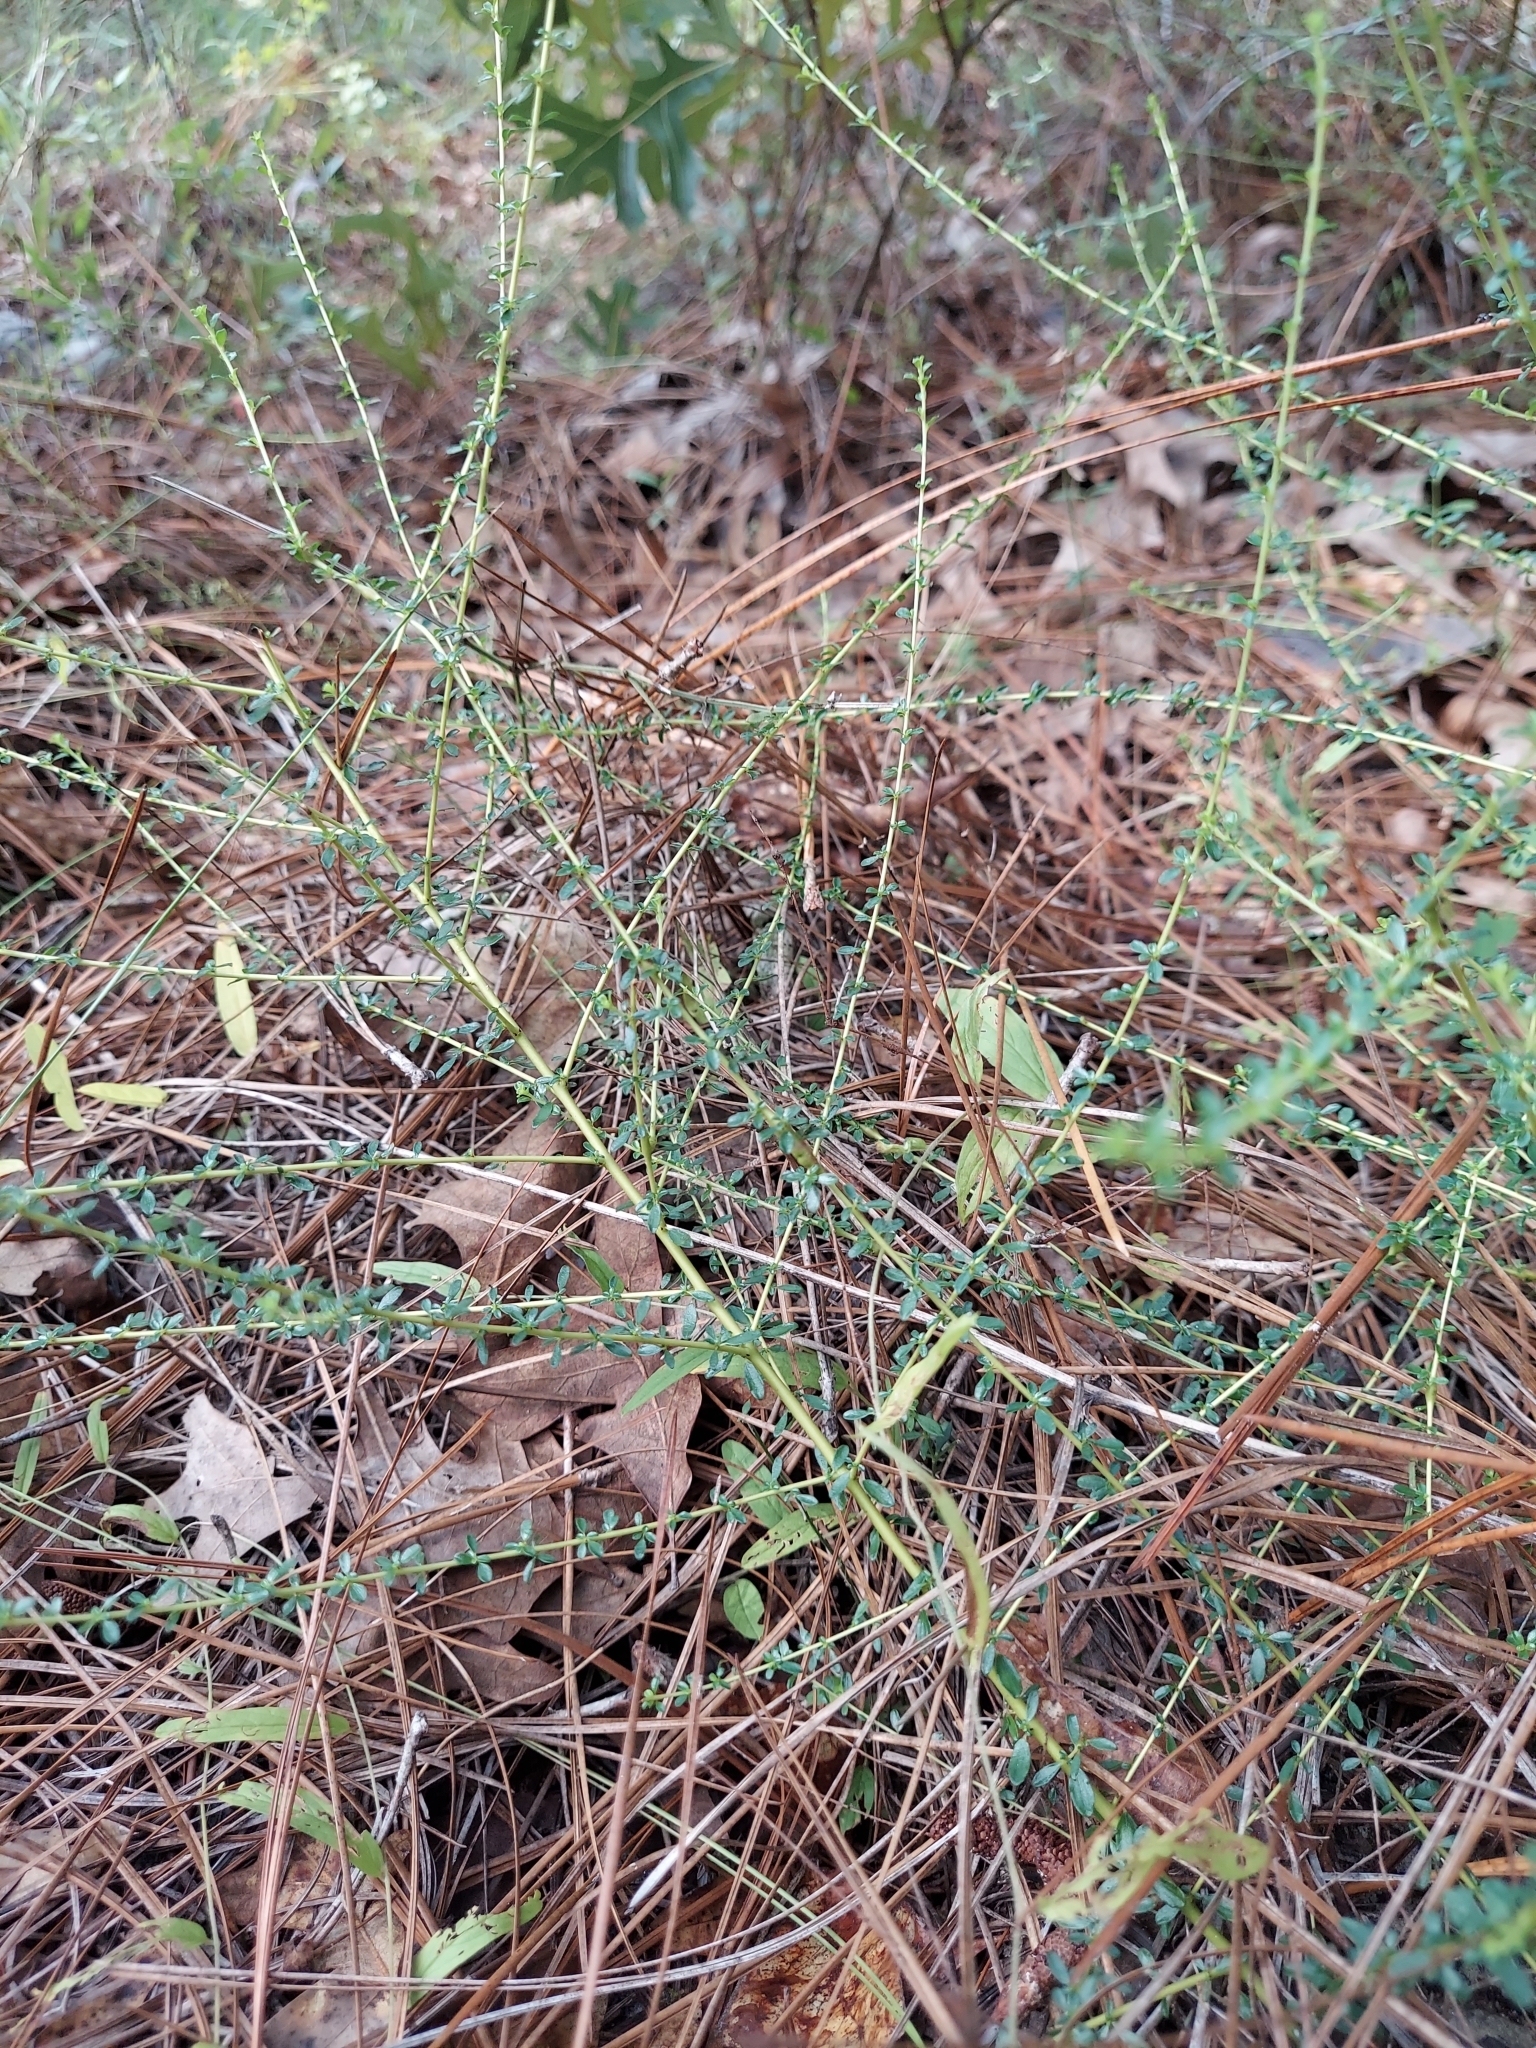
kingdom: Plantae
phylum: Tracheophyta
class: Magnoliopsida
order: Rosales
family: Rhamnaceae
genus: Ceanothus
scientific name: Ceanothus microphyllus
